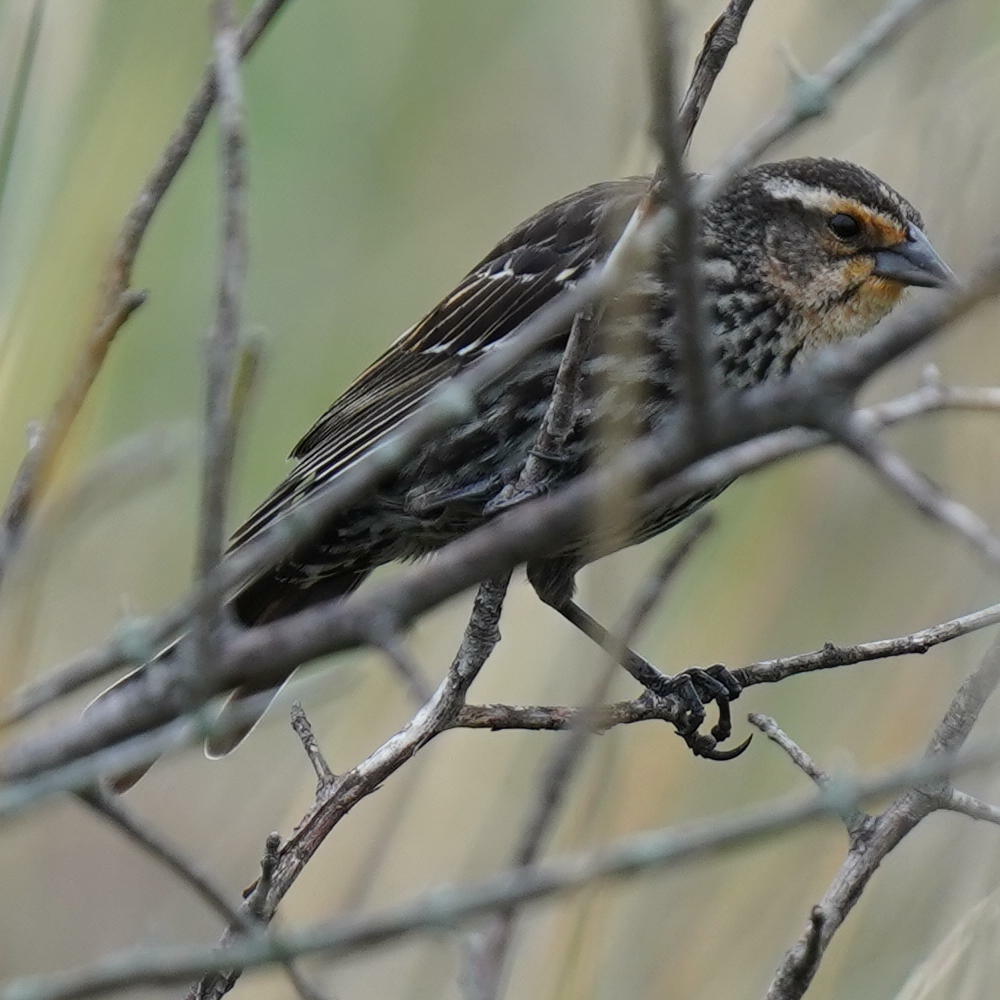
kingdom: Animalia
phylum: Chordata
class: Aves
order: Passeriformes
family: Icteridae
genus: Agelaius
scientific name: Agelaius phoeniceus
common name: Red-winged blackbird
